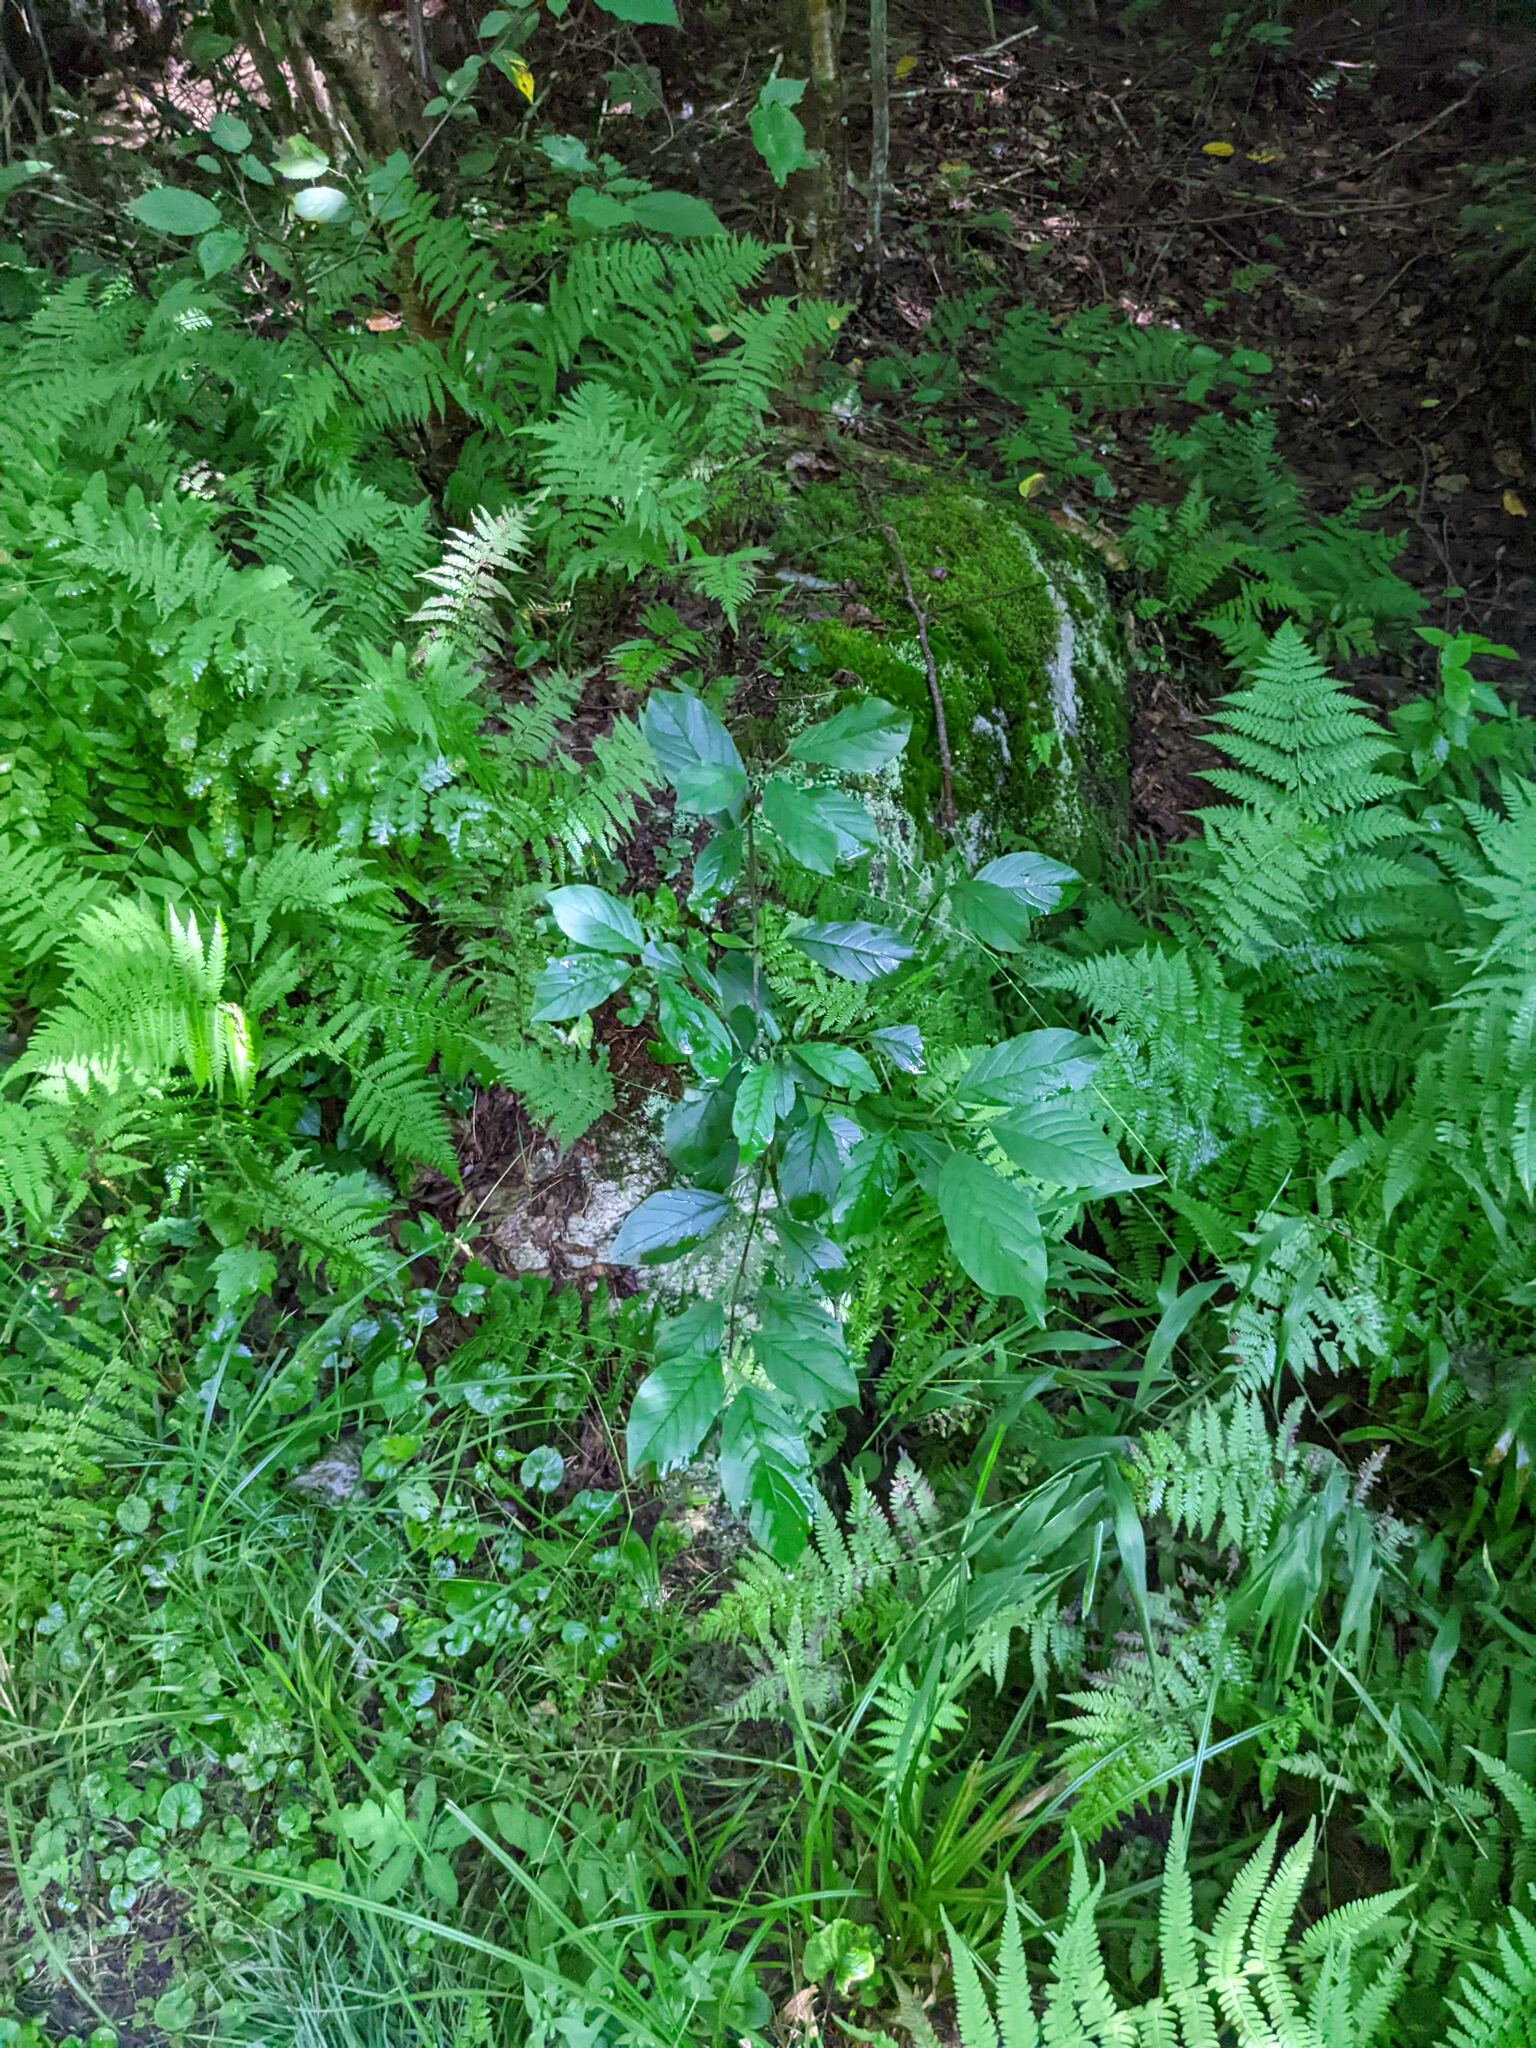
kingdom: Plantae
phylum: Tracheophyta
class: Magnoliopsida
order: Rosales
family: Rhamnaceae
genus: Frangula
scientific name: Frangula alnus
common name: Alder buckthorn
